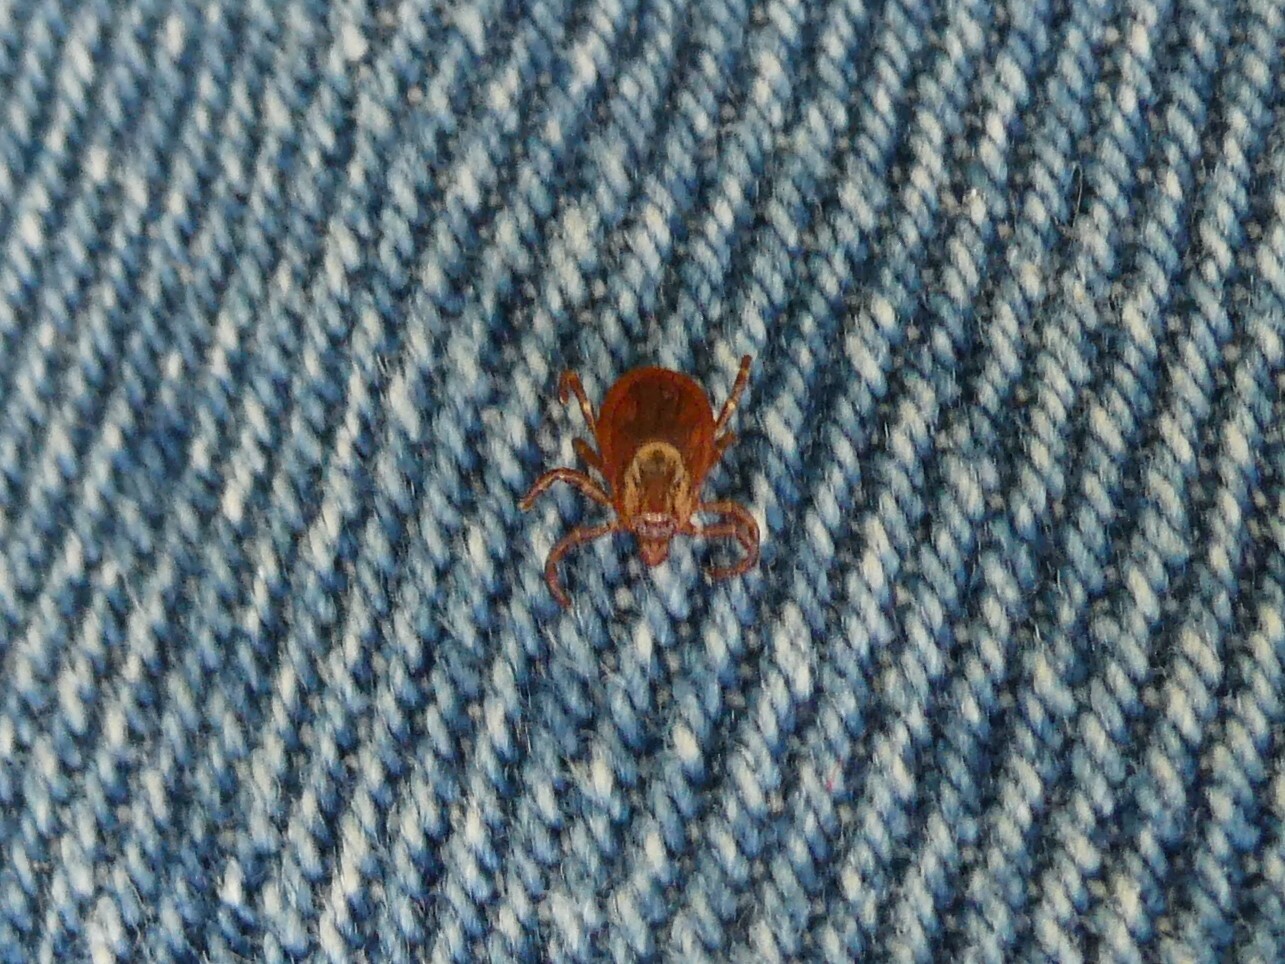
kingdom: Animalia
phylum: Arthropoda
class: Arachnida
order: Ixodida
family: Ixodidae
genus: Dermacentor
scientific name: Dermacentor variabilis
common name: American dog tick
